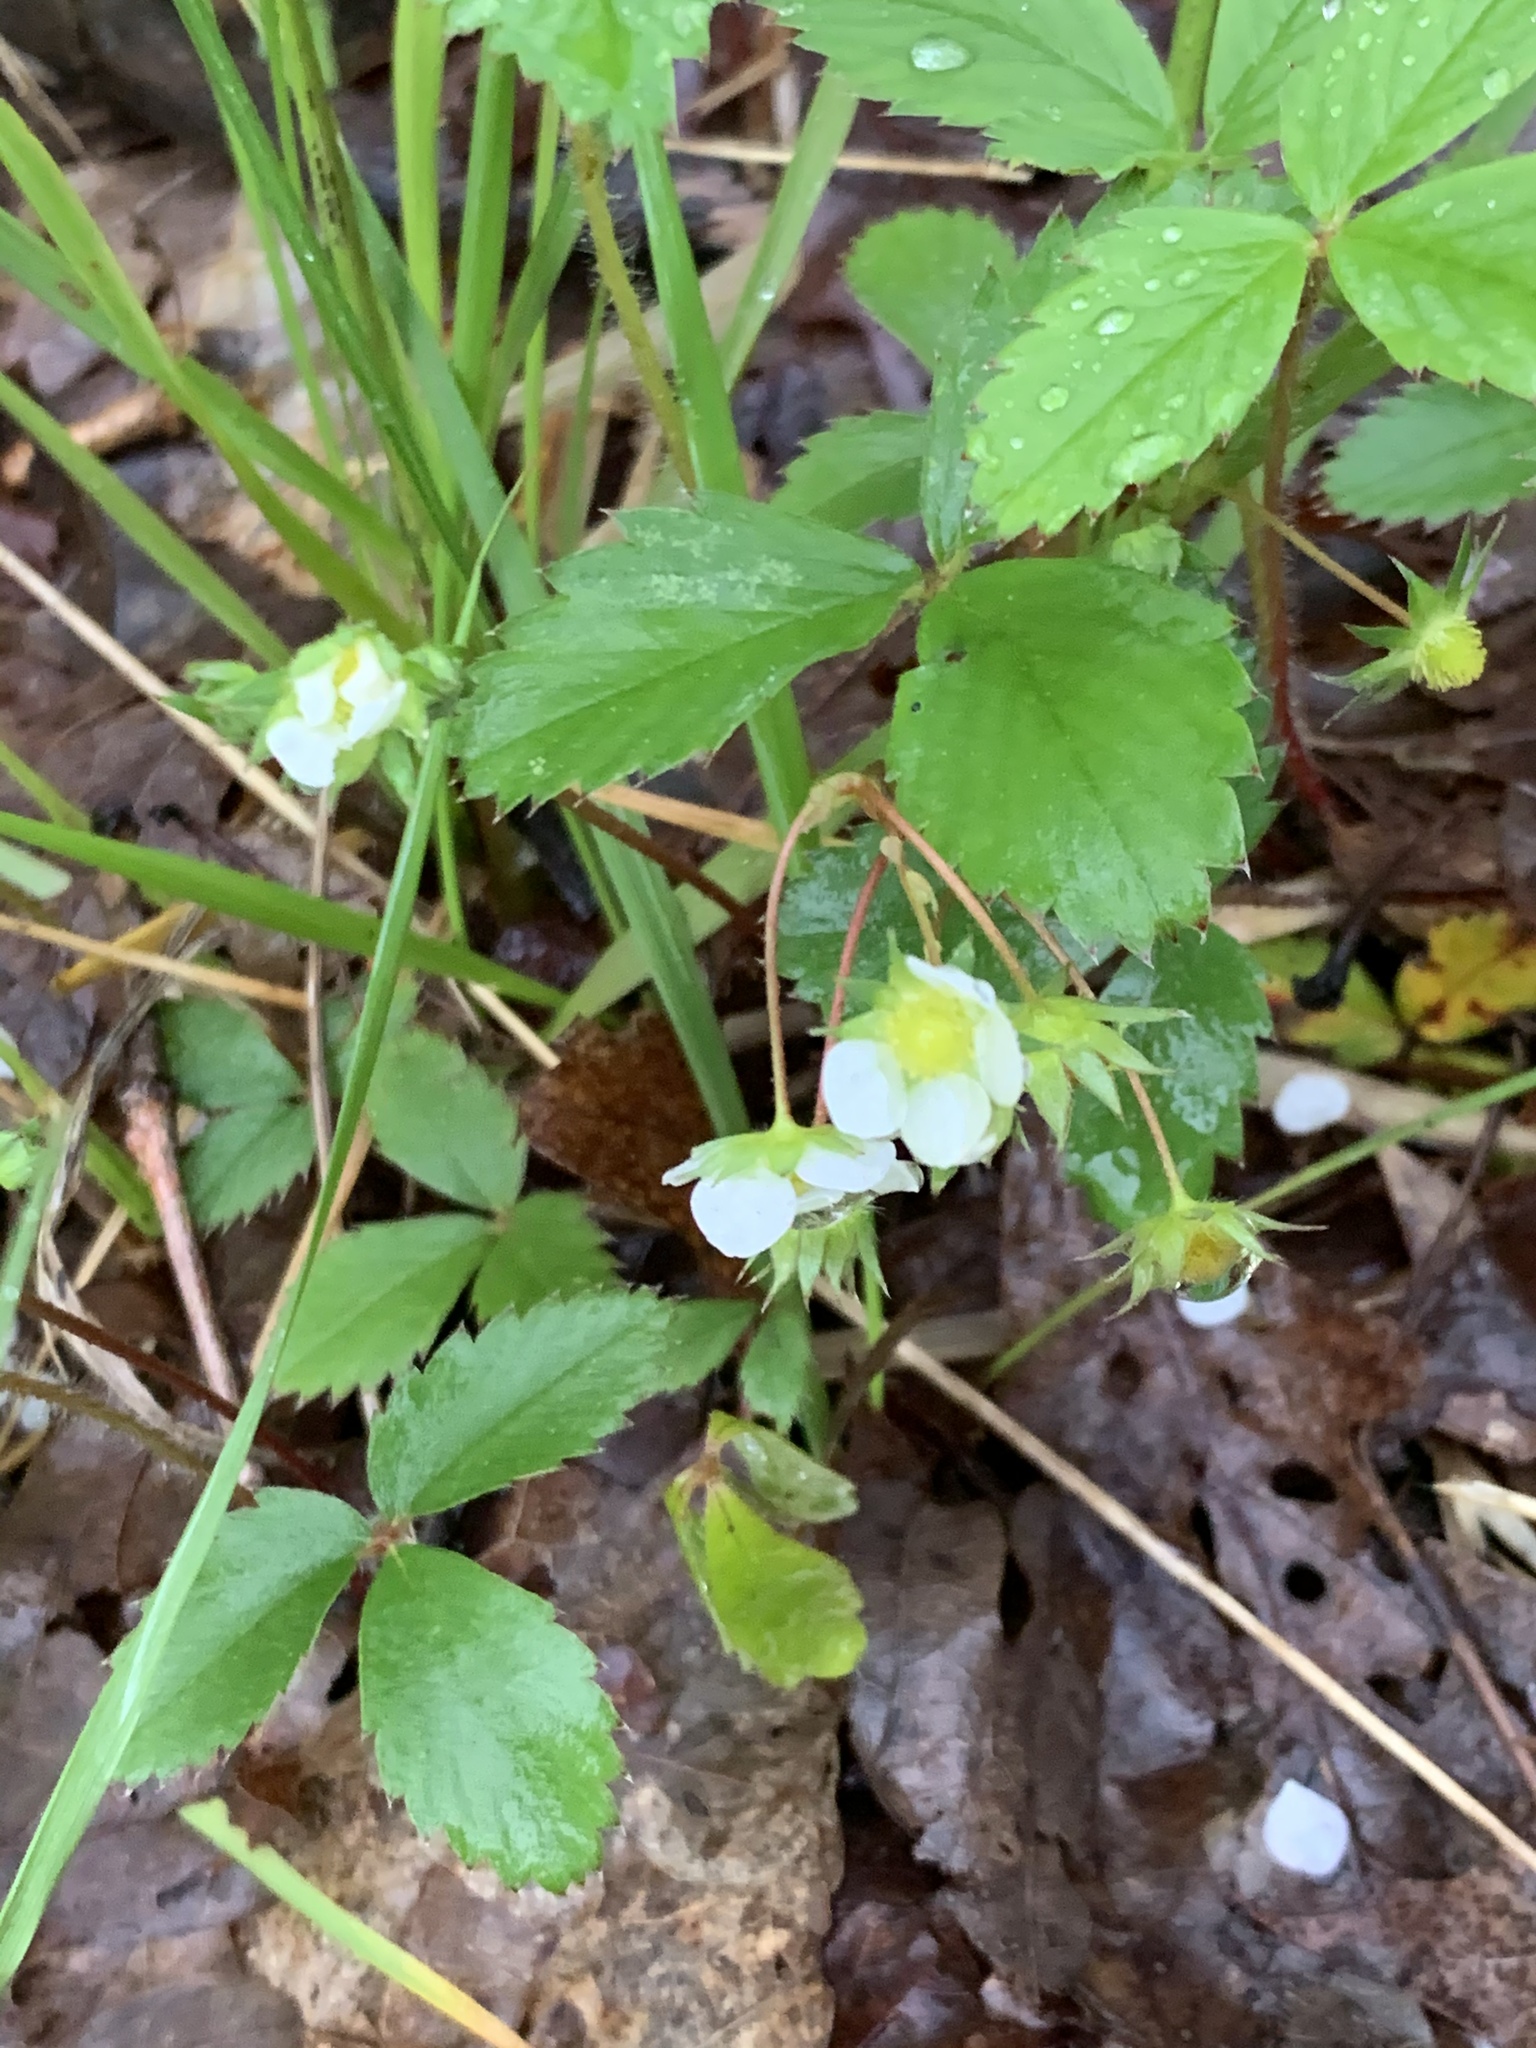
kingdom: Plantae
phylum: Tracheophyta
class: Magnoliopsida
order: Rosales
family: Rosaceae
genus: Fragaria
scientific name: Fragaria virginiana
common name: Thickleaved wild strawberry
